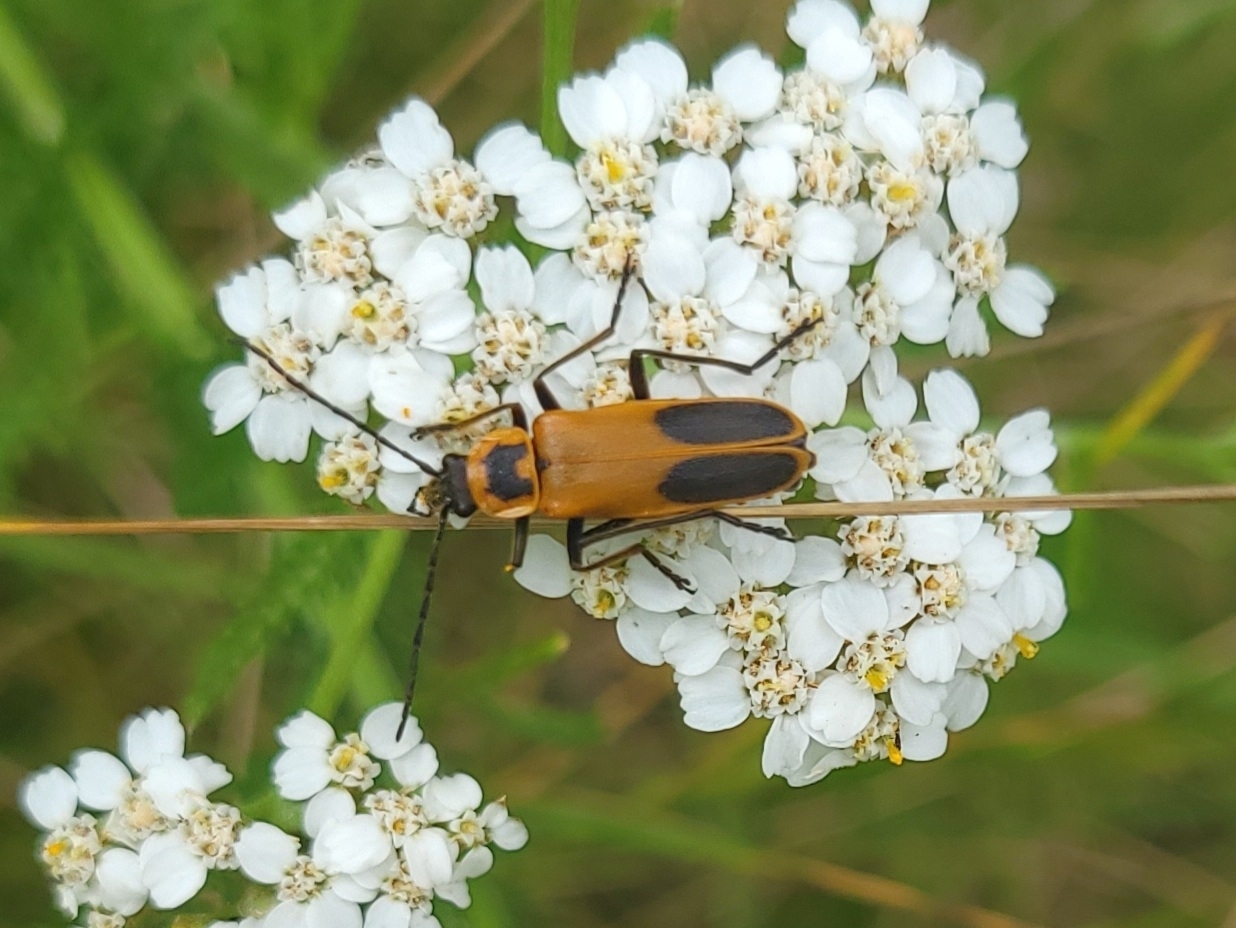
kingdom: Plantae
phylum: Tracheophyta
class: Magnoliopsida
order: Asterales
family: Asteraceae
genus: Achillea
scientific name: Achillea millefolium
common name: Yarrow
